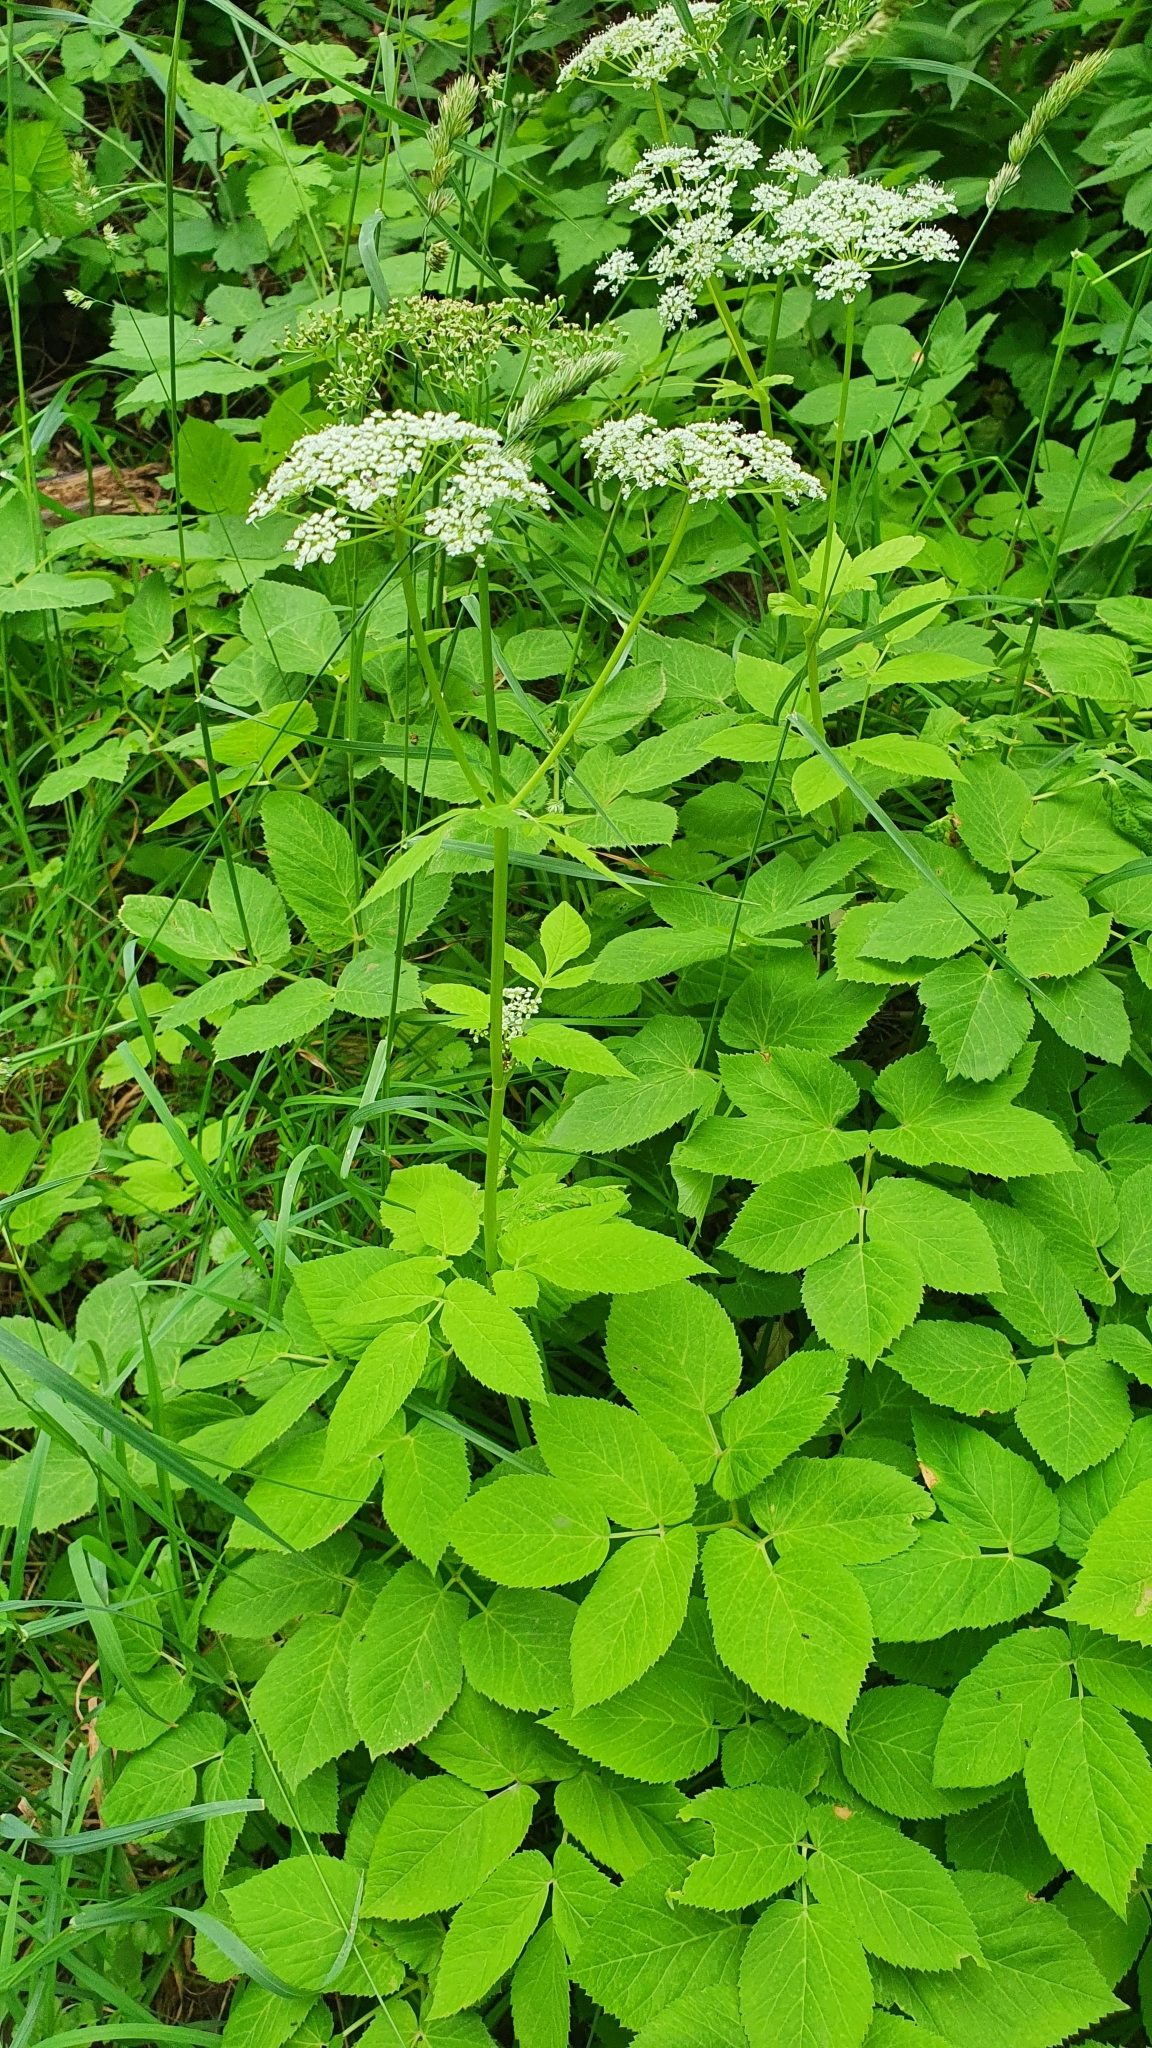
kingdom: Plantae
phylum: Tracheophyta
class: Magnoliopsida
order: Apiales
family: Apiaceae
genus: Aegopodium
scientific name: Aegopodium podagraria
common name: Ground-elder
